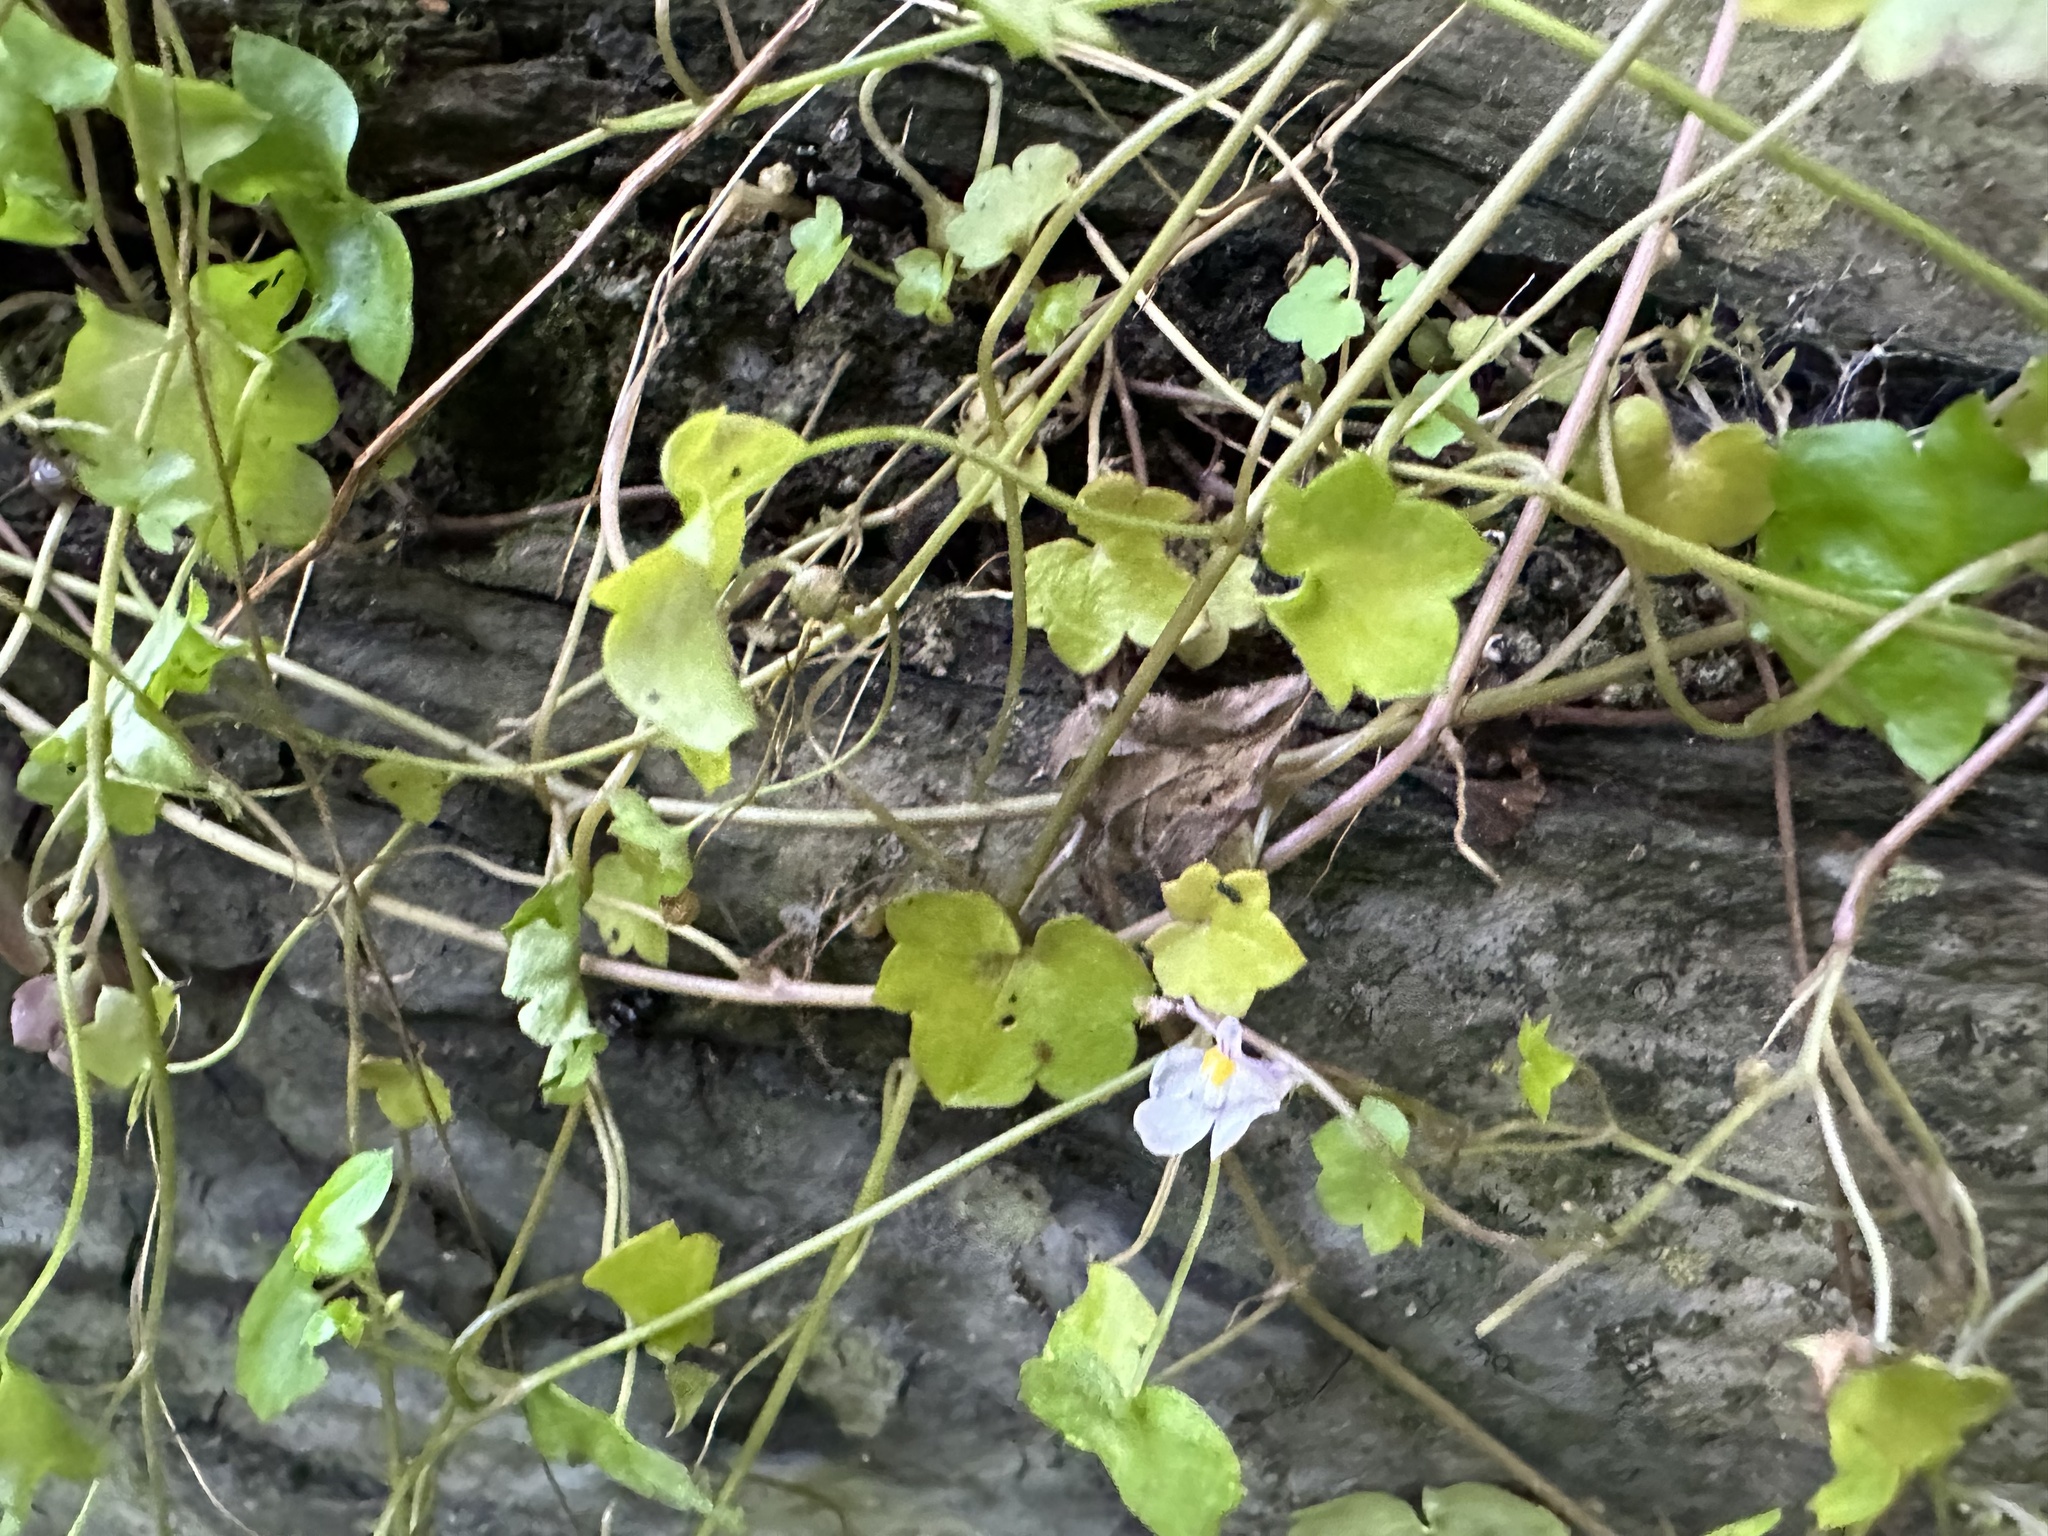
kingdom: Plantae
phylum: Tracheophyta
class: Magnoliopsida
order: Lamiales
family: Plantaginaceae
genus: Cymbalaria
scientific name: Cymbalaria muralis
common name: Ivy-leaved toadflax
